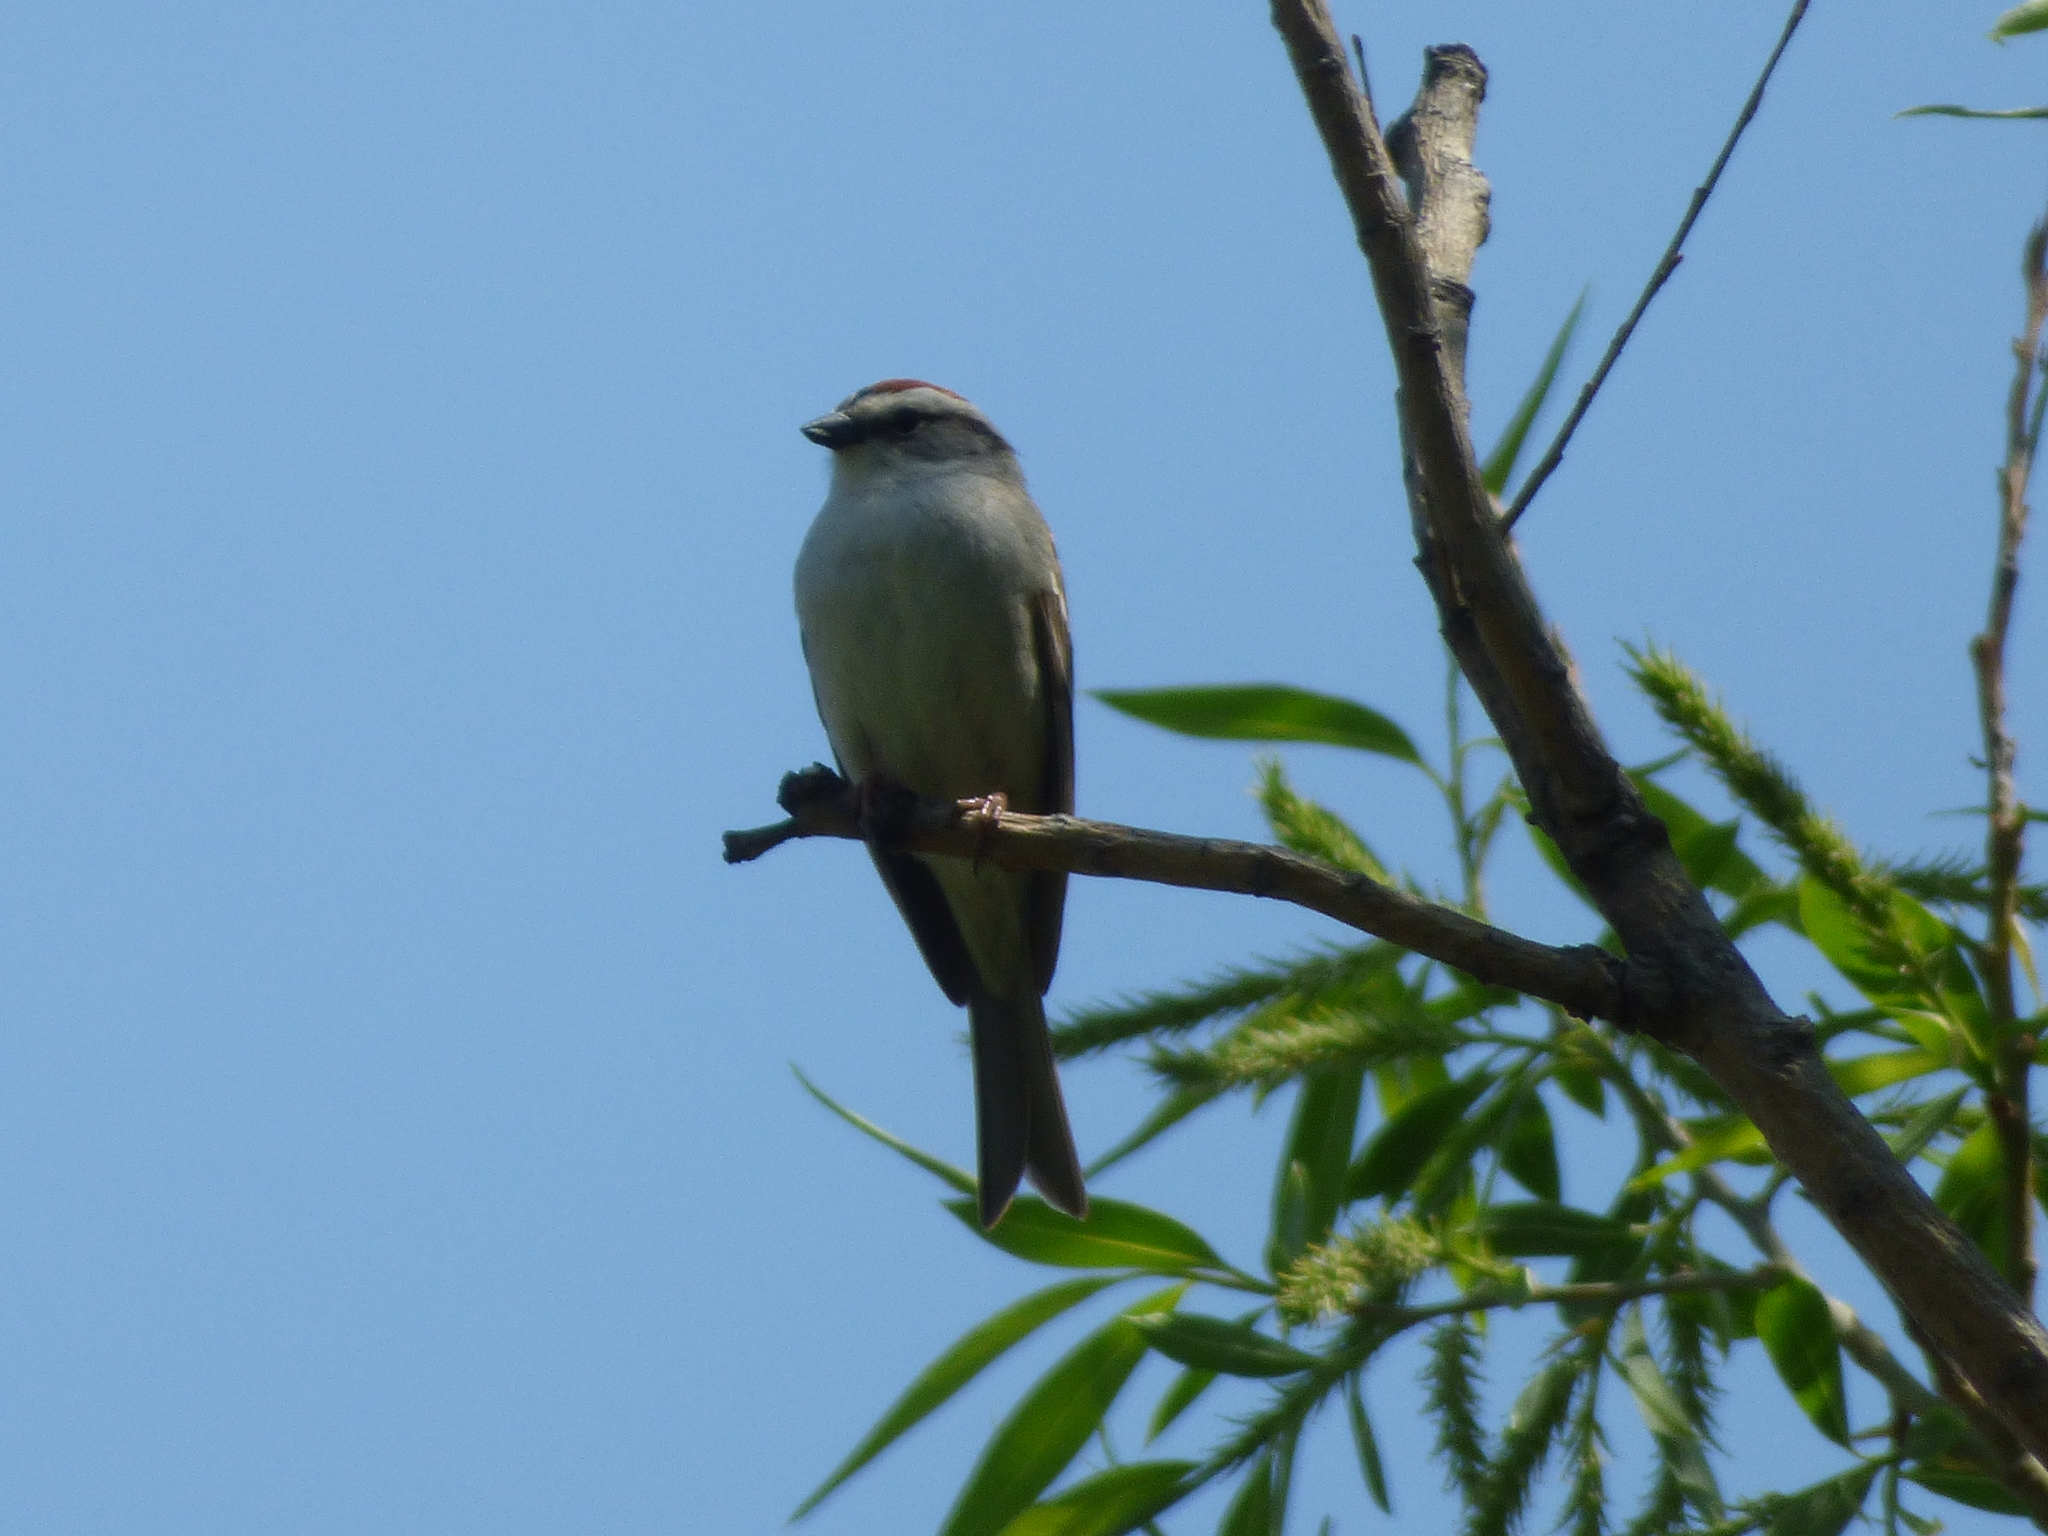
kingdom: Animalia
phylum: Chordata
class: Aves
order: Passeriformes
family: Passerellidae
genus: Spizella
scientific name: Spizella passerina
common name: Chipping sparrow
